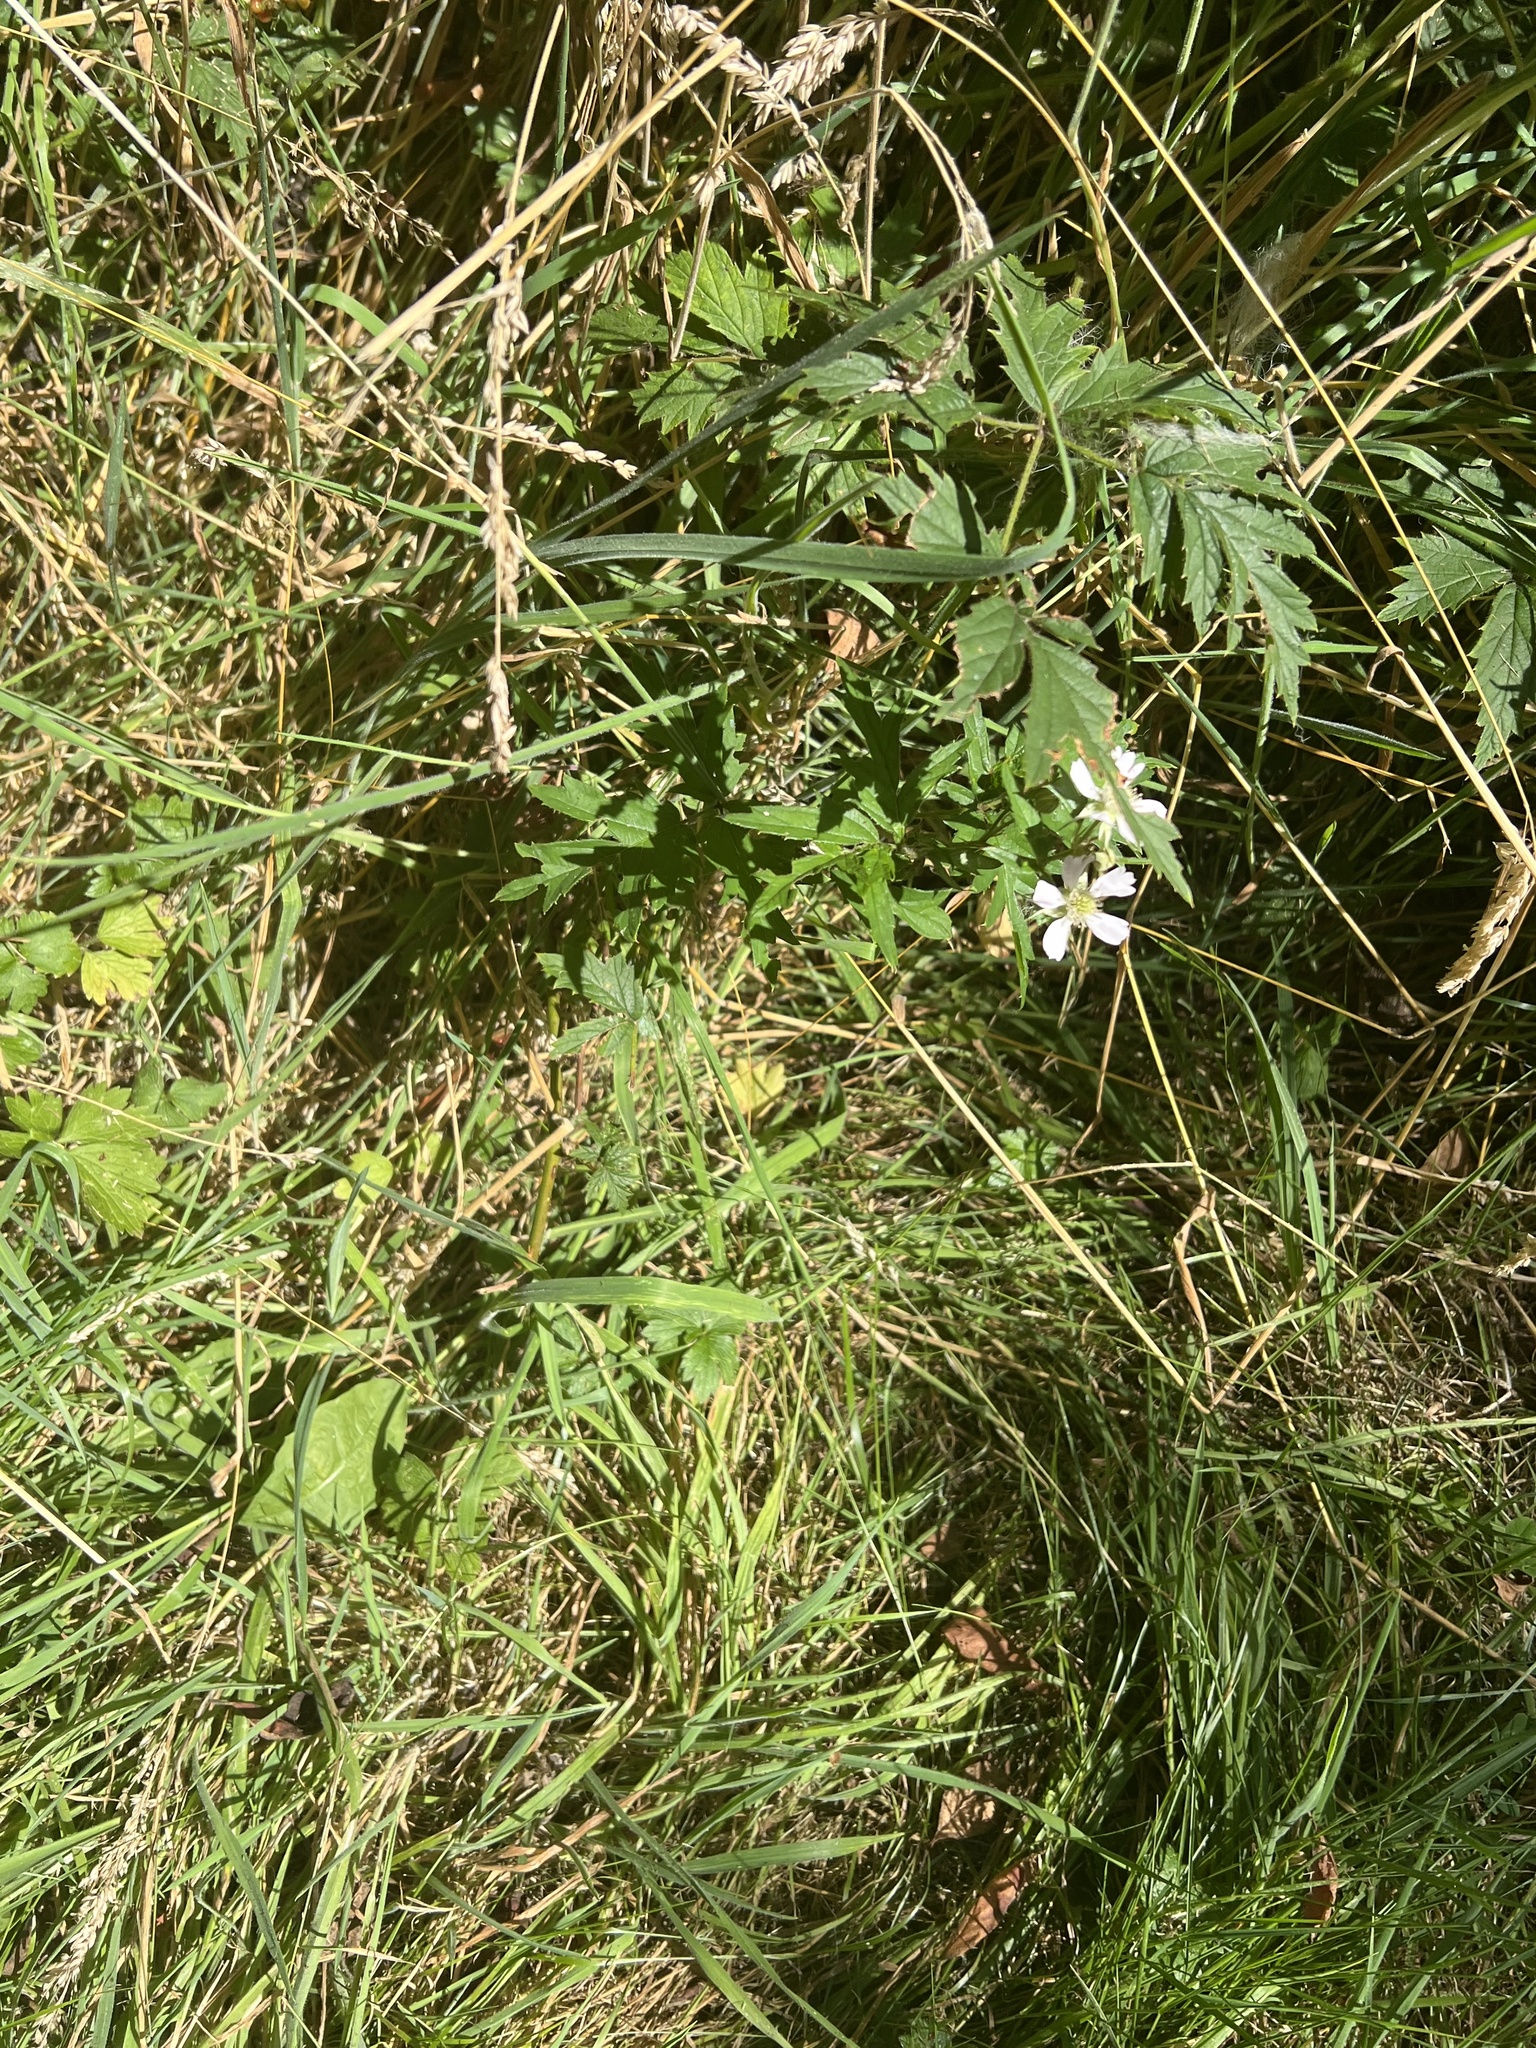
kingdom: Plantae
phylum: Tracheophyta
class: Magnoliopsida
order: Rosales
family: Rosaceae
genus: Rubus
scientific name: Rubus laciniatus
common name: Evergreen blackberry
